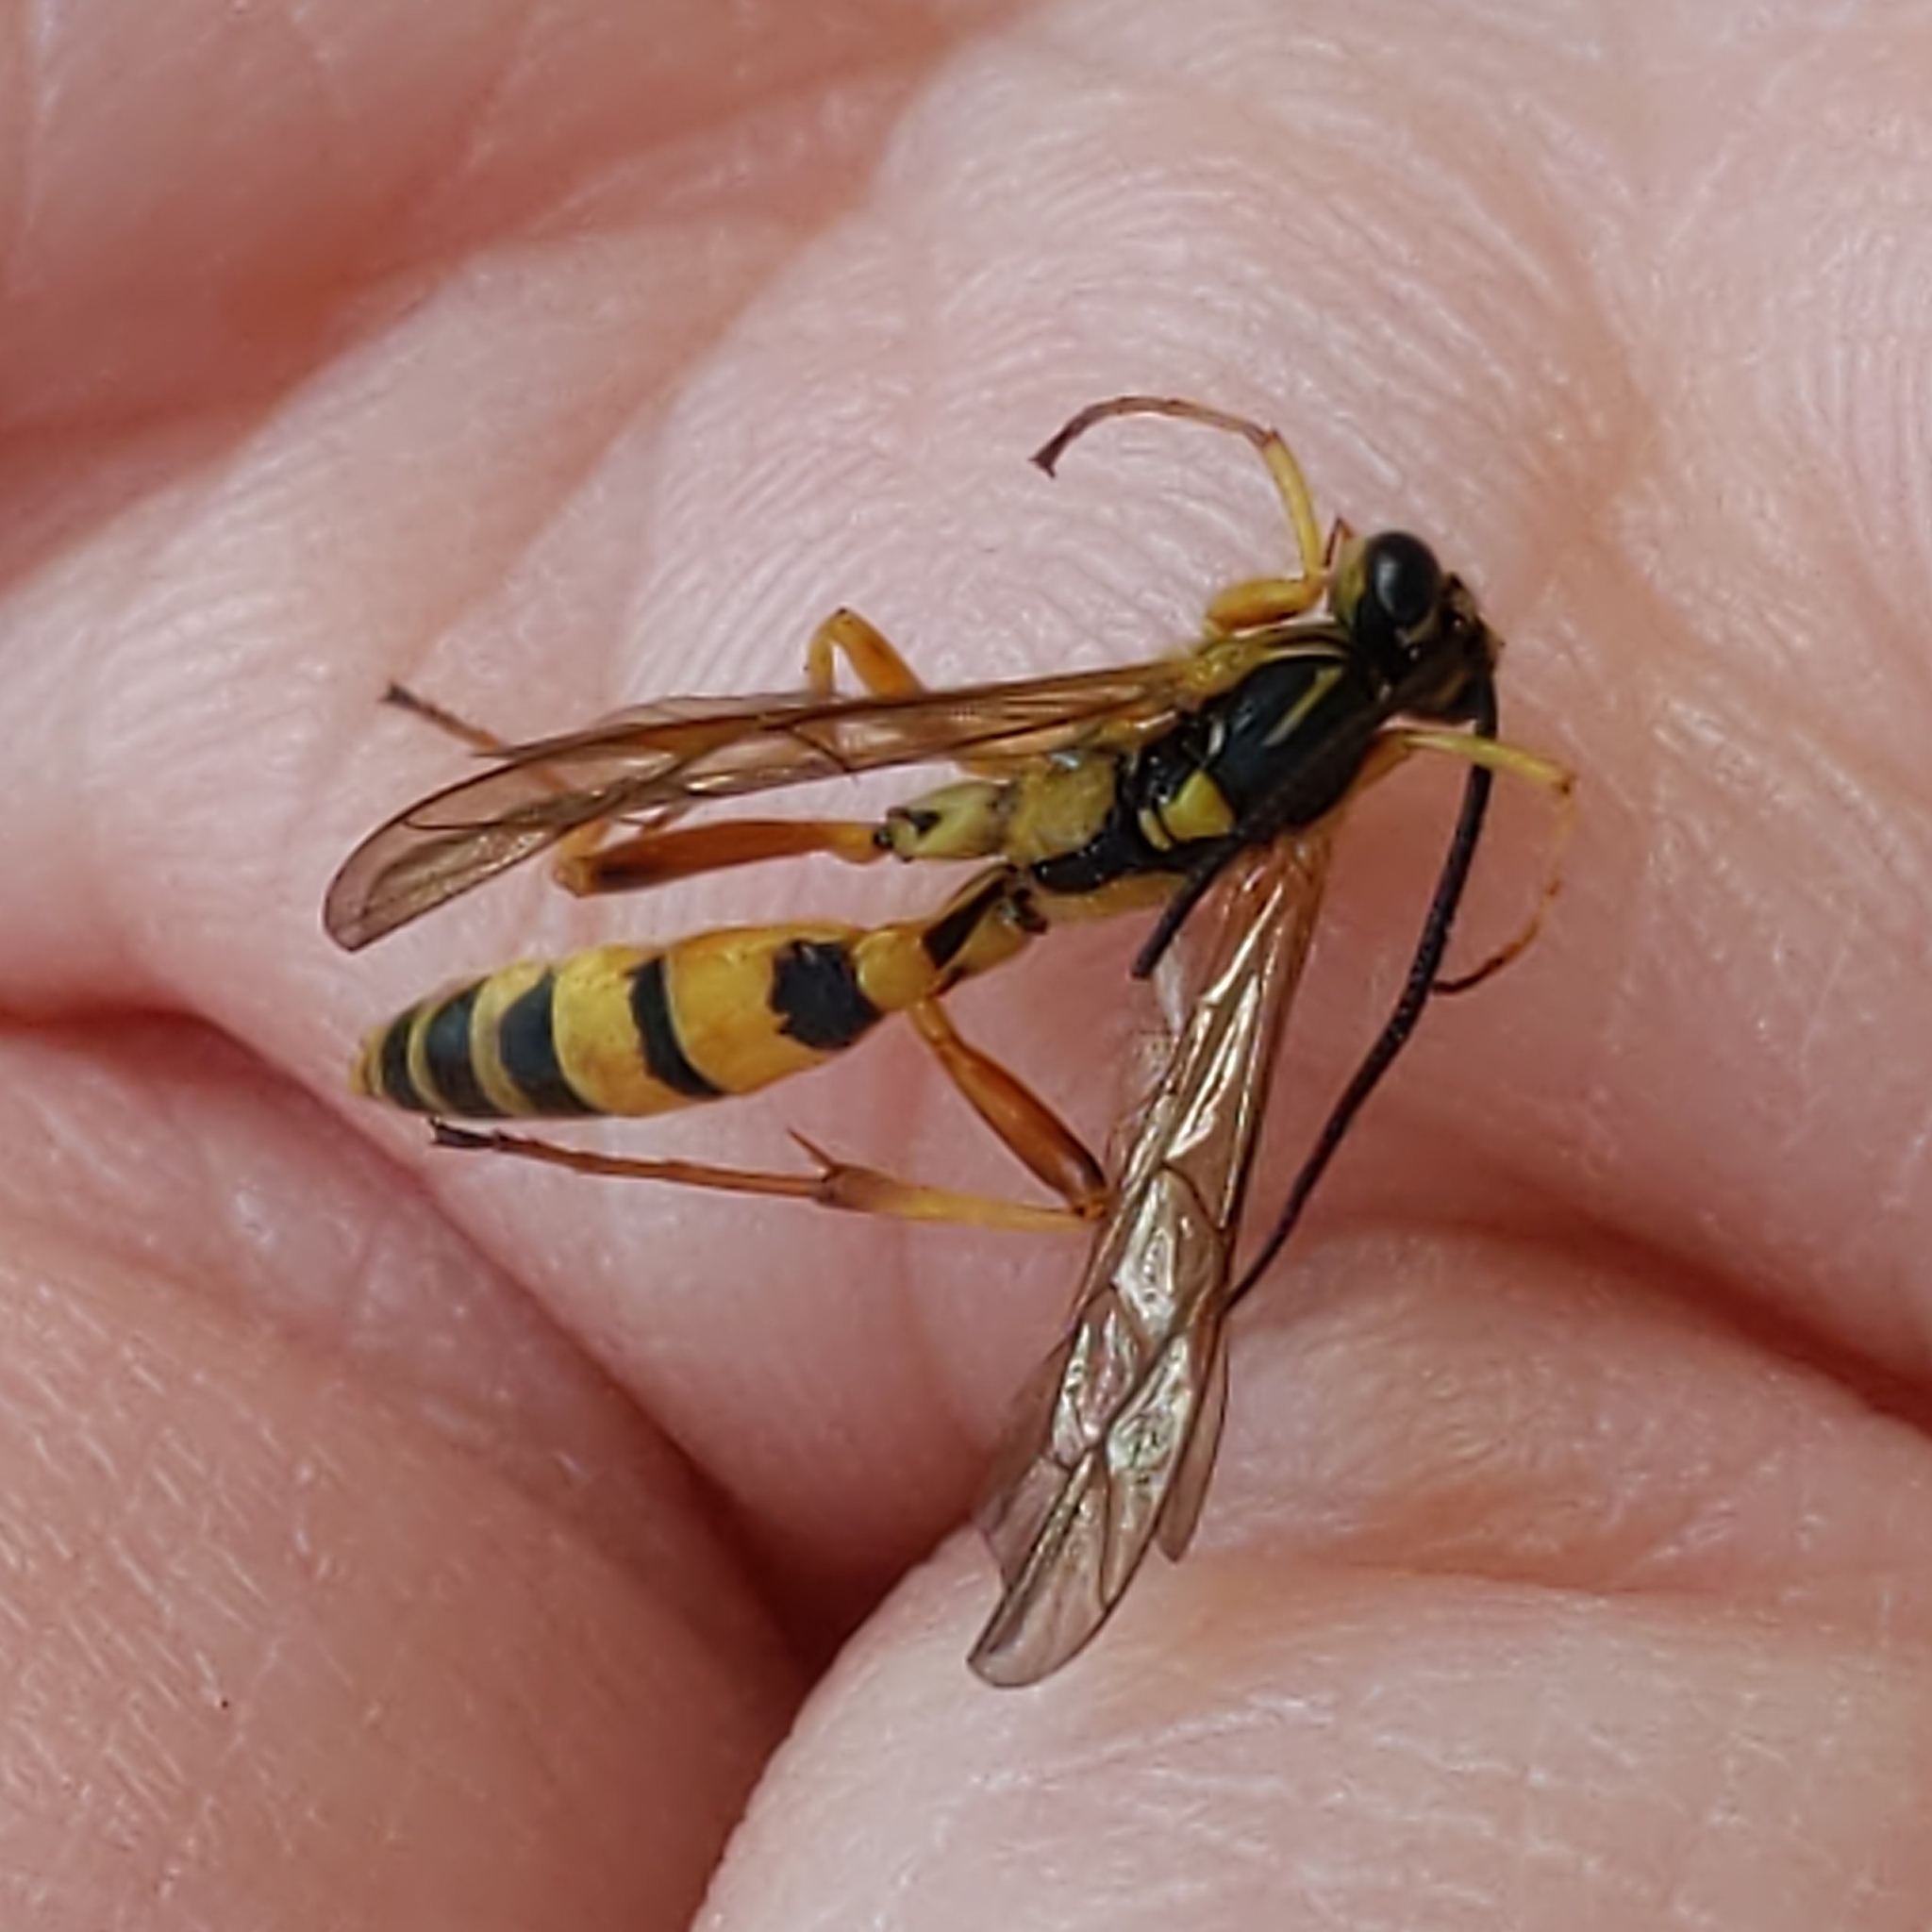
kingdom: Animalia
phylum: Arthropoda
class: Insecta
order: Hymenoptera
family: Ichneumonidae
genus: Setanta
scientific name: Setanta compta
